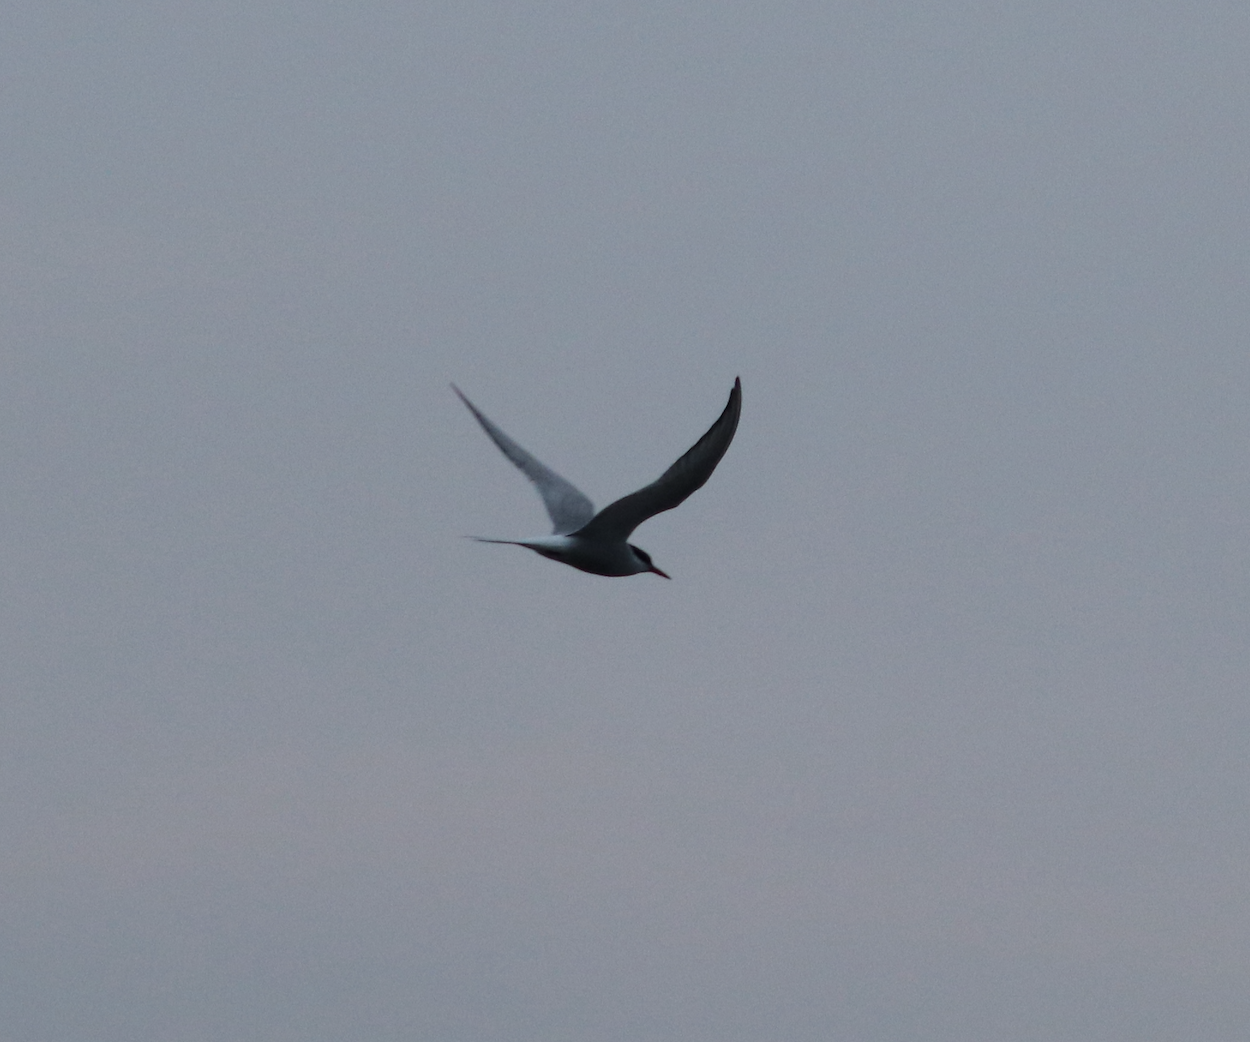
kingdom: Animalia
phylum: Chordata
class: Aves
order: Charadriiformes
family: Laridae
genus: Sterna
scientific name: Sterna paradisaea
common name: Arctic tern
